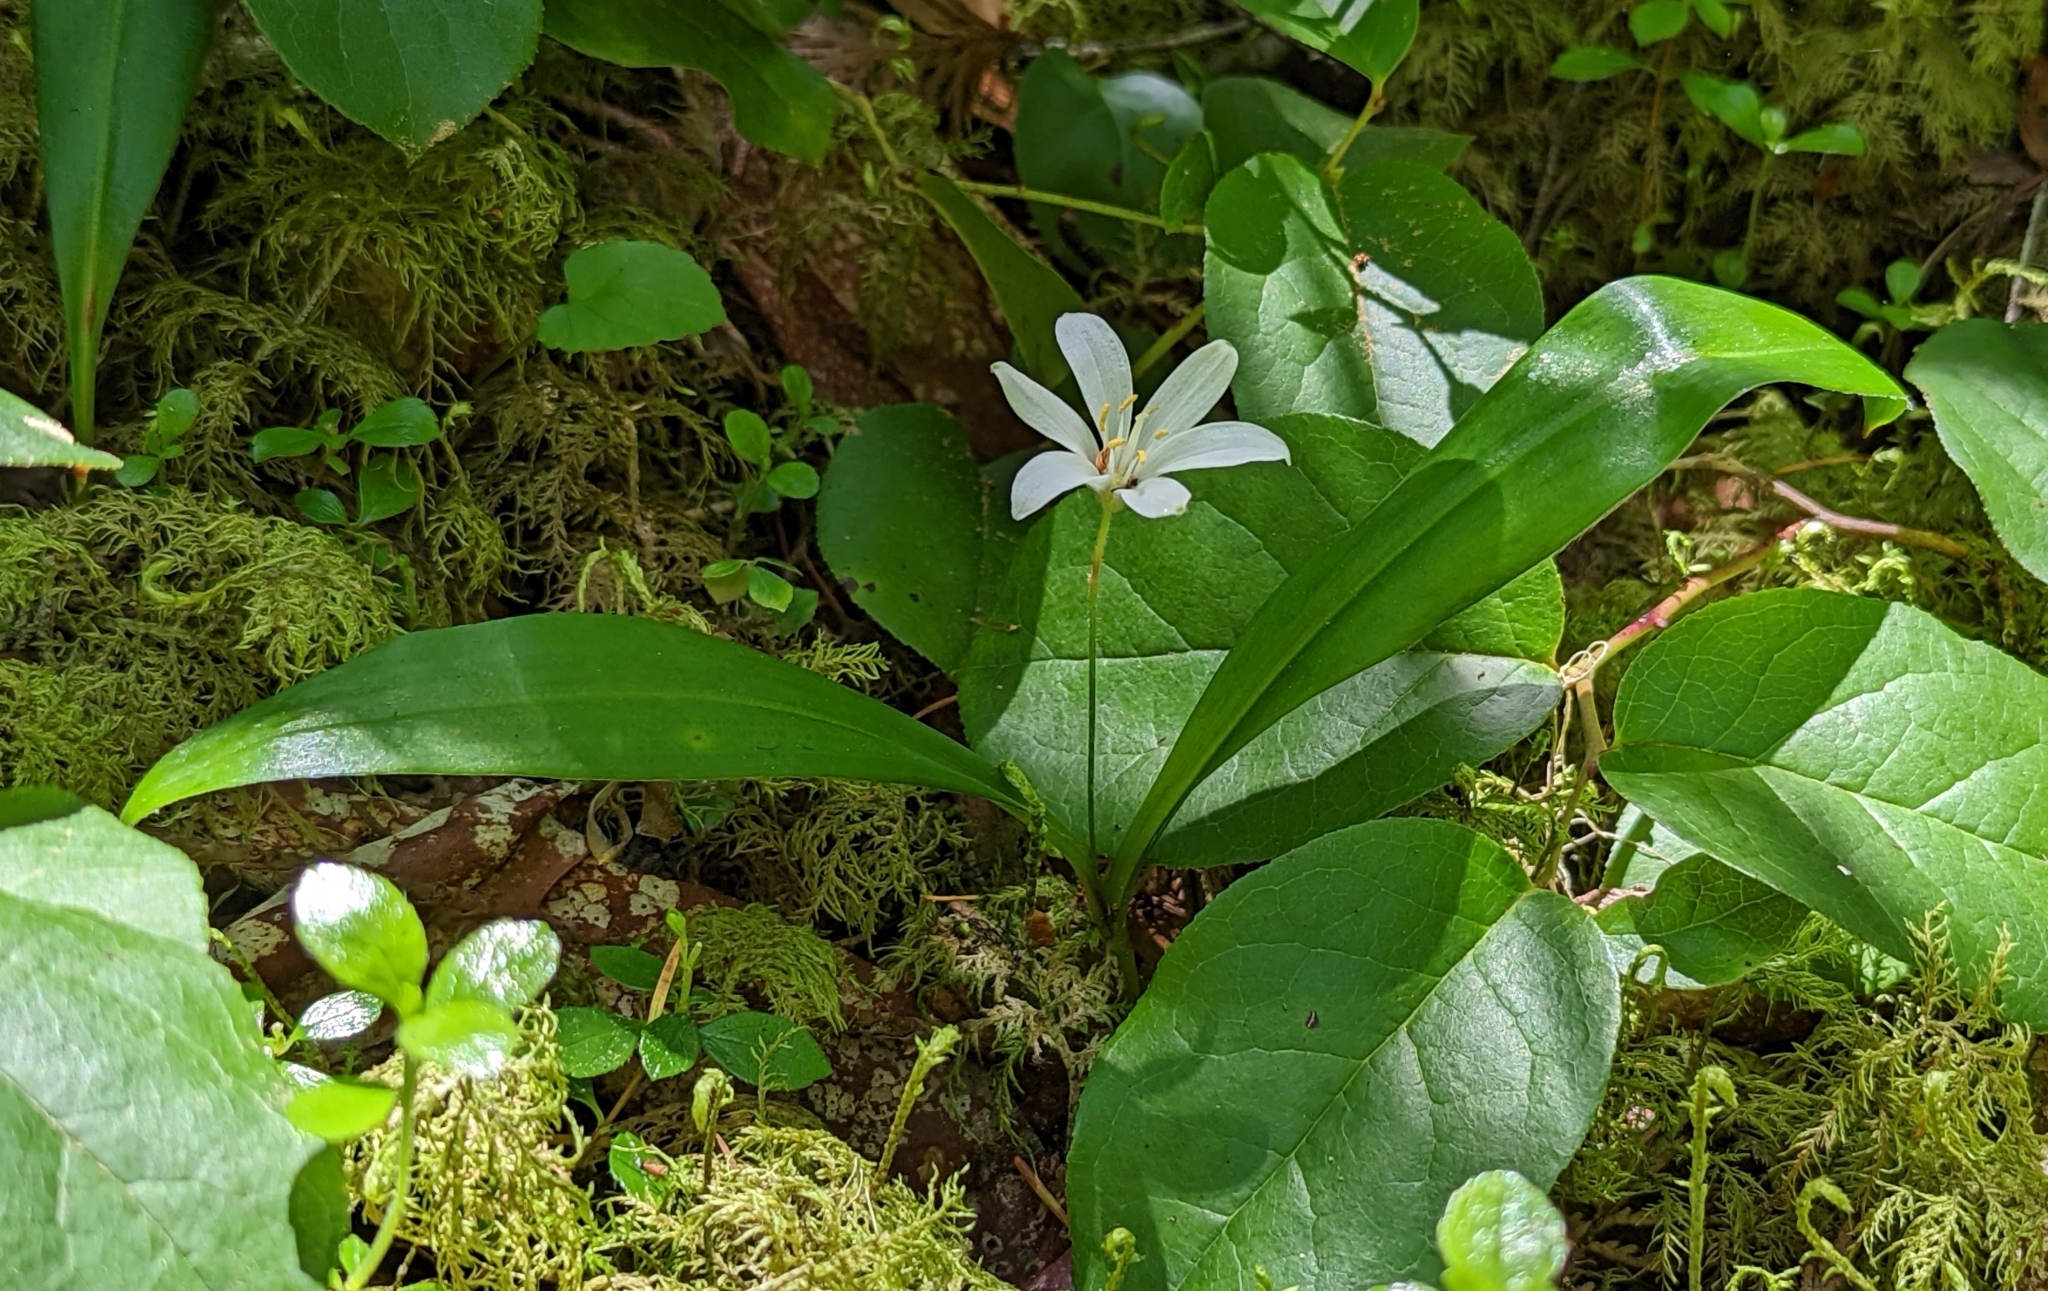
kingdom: Plantae
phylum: Tracheophyta
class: Liliopsida
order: Liliales
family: Liliaceae
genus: Clintonia
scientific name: Clintonia uniflora
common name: Queen's cup
